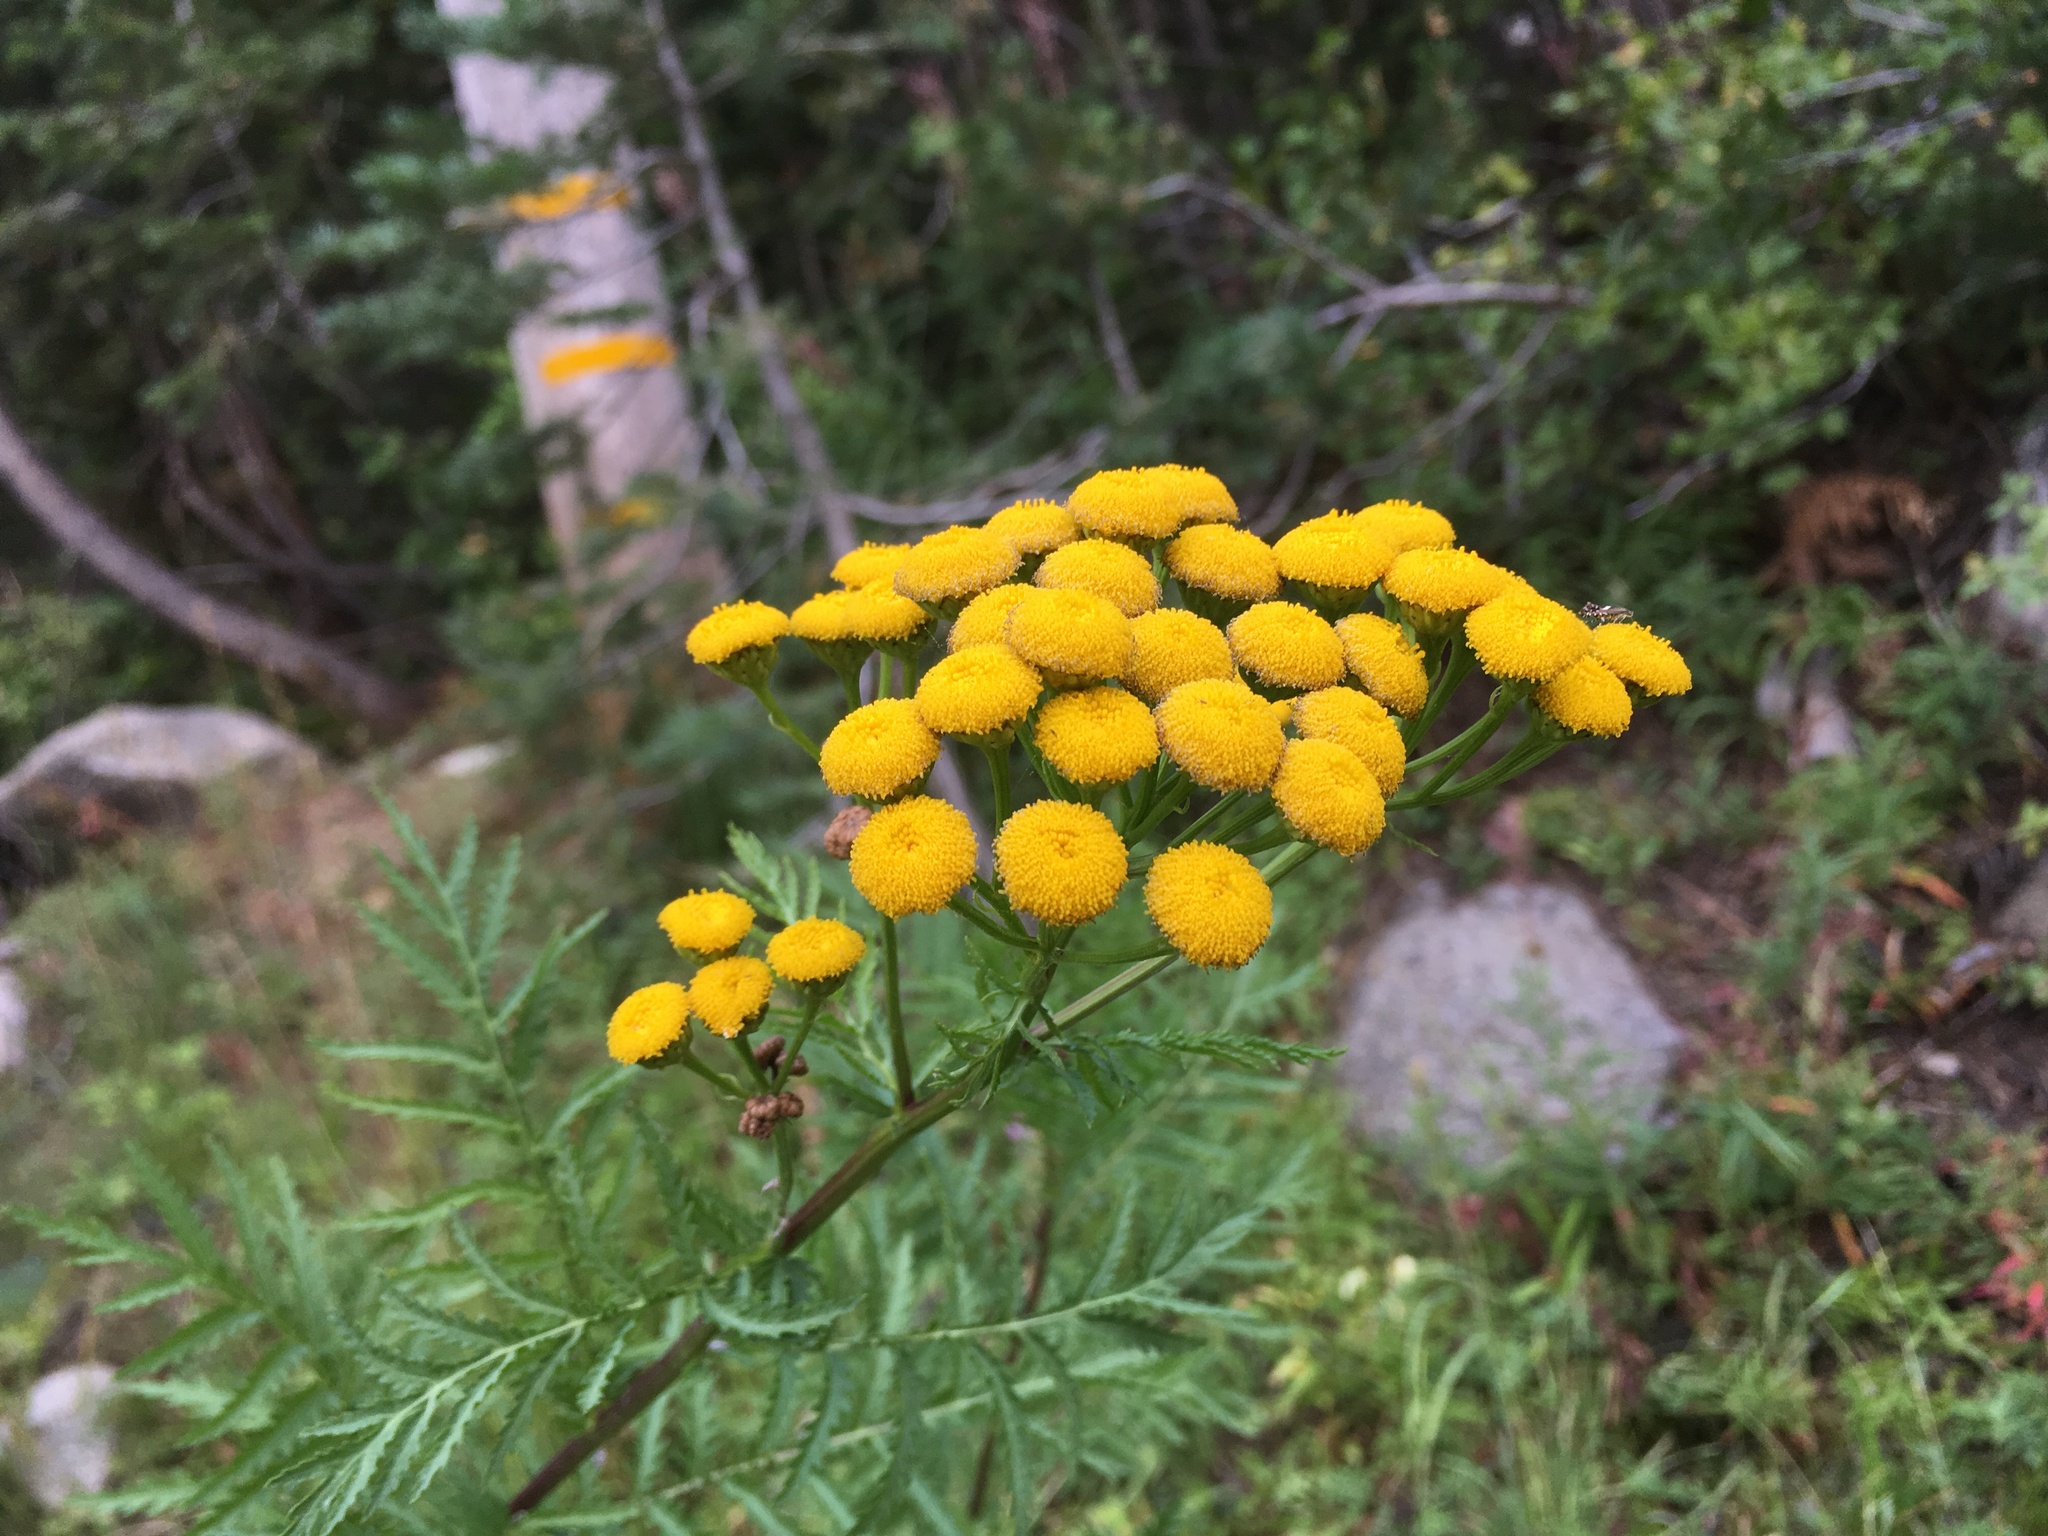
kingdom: Plantae
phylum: Tracheophyta
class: Magnoliopsida
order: Asterales
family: Asteraceae
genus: Tanacetum
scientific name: Tanacetum vulgare
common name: Common tansy
